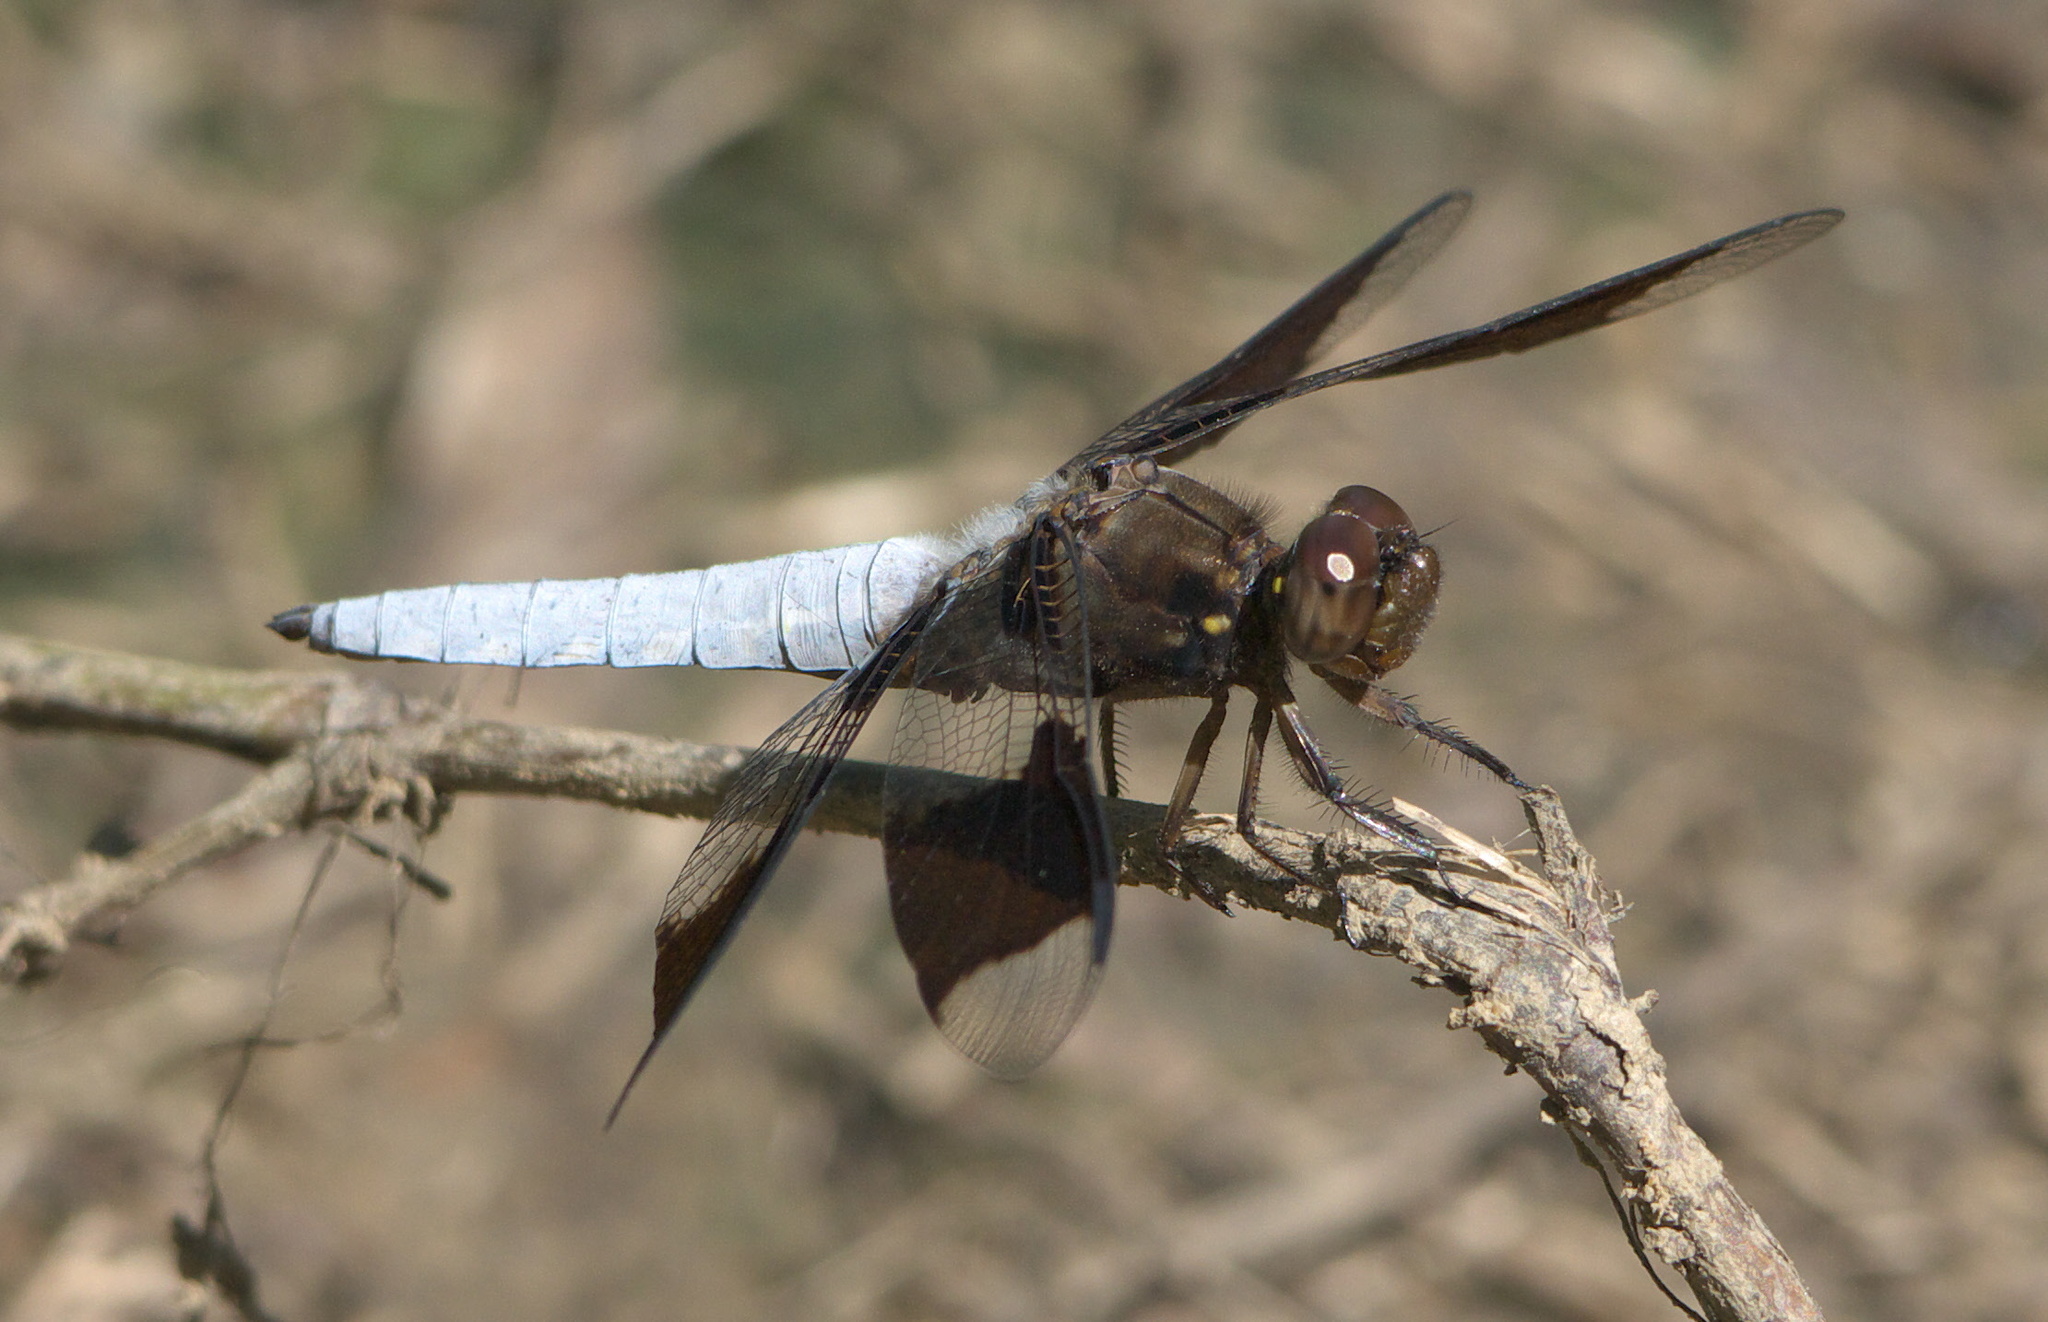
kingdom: Animalia
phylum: Arthropoda
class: Insecta
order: Odonata
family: Libellulidae
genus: Plathemis
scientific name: Plathemis lydia
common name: Common whitetail
